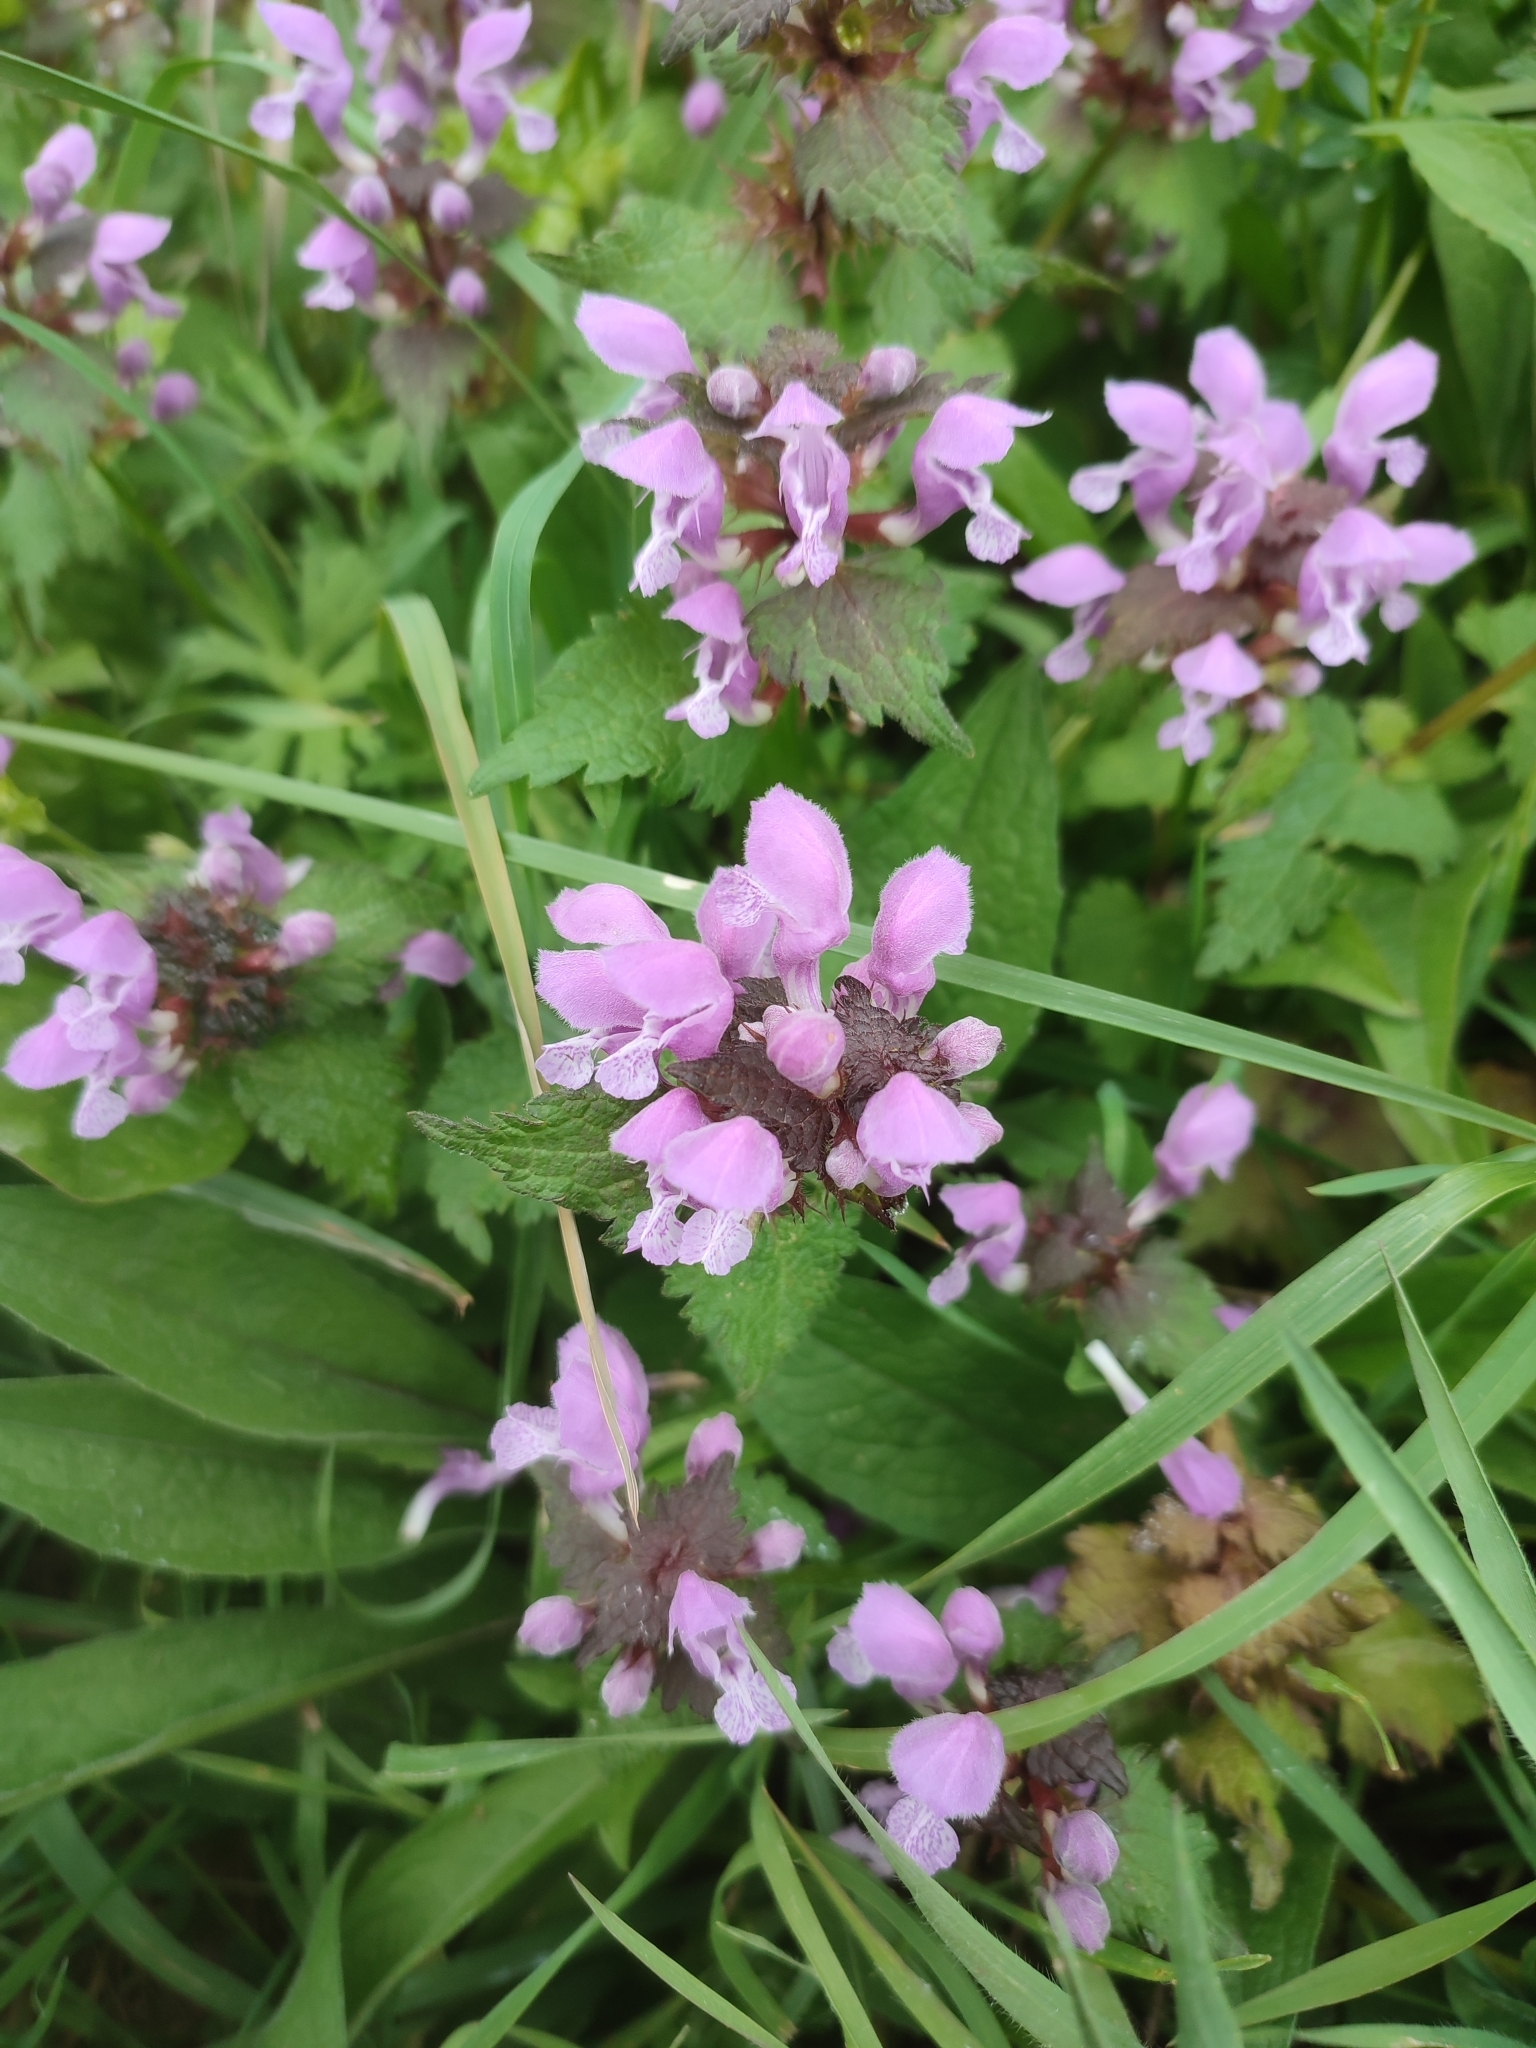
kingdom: Plantae
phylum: Tracheophyta
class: Magnoliopsida
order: Lamiales
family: Lamiaceae
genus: Lamium
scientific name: Lamium maculatum
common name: Spotted dead-nettle
